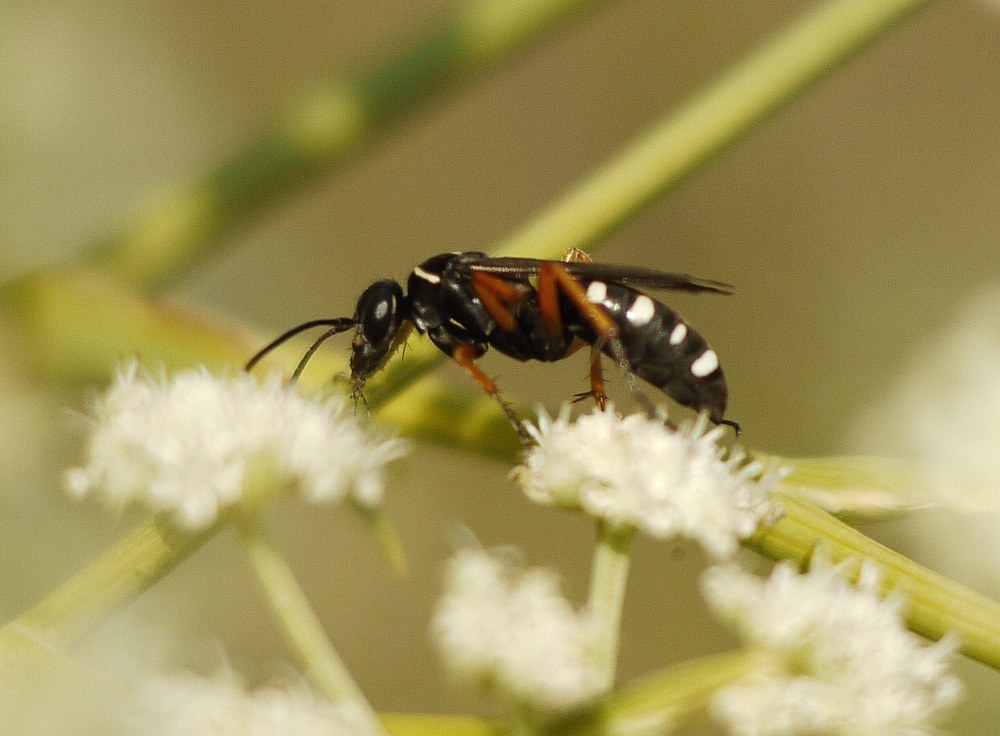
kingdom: Animalia
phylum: Arthropoda
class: Insecta
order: Hymenoptera
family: Pompilidae
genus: Episyron
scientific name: Episyron albonotatum
